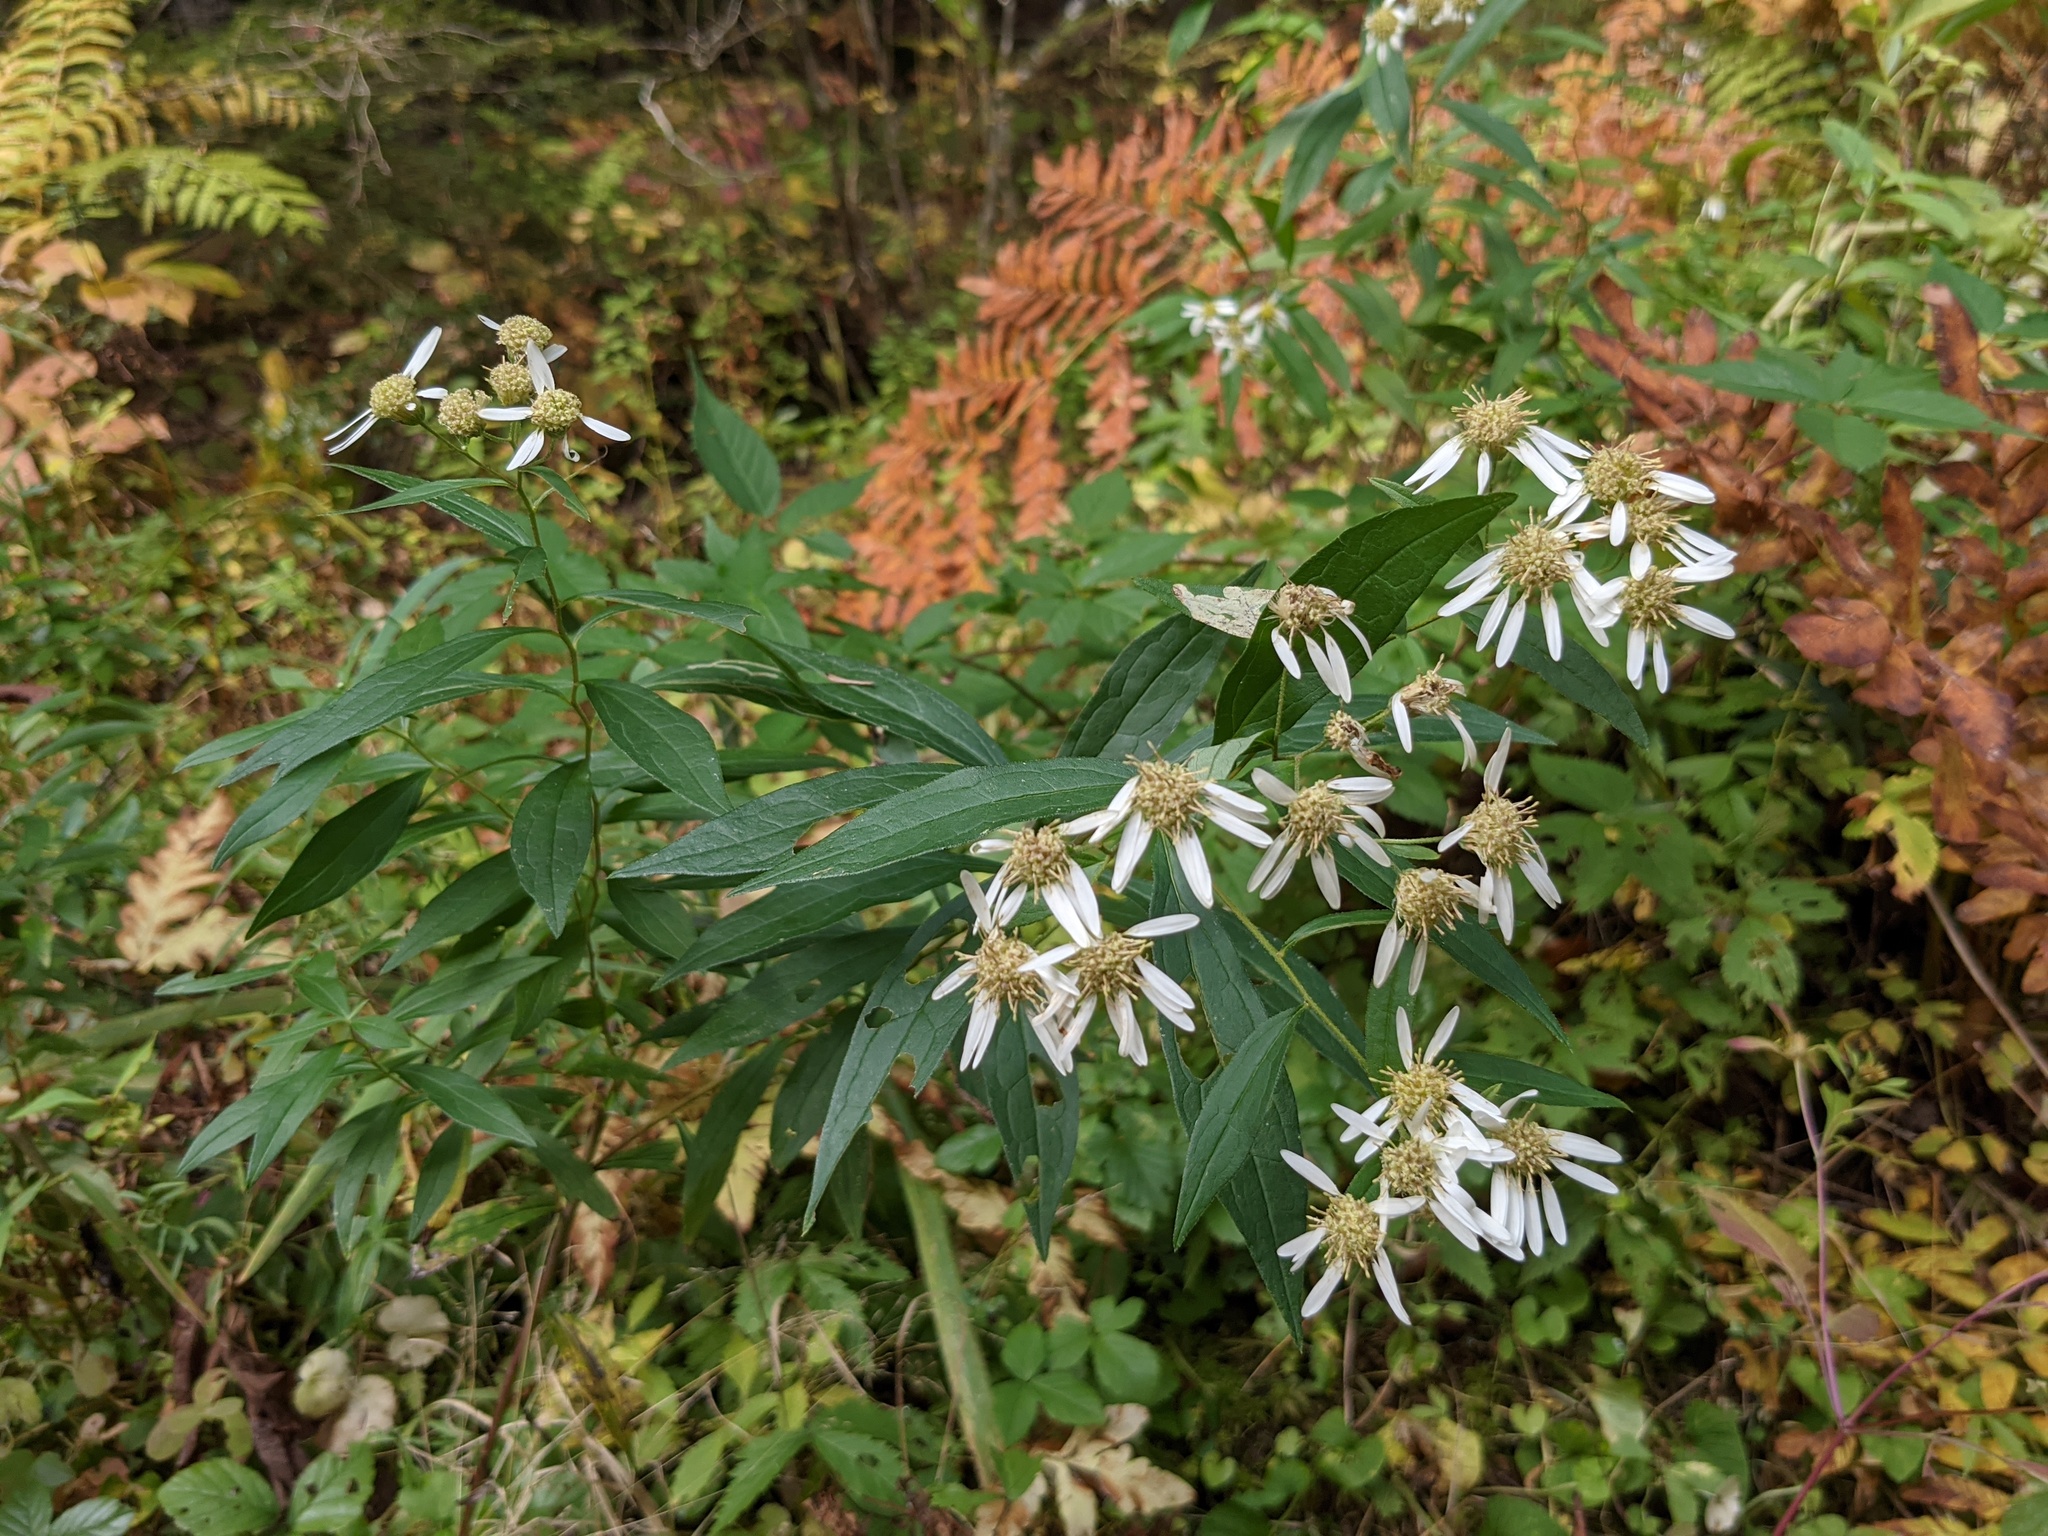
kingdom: Plantae
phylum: Tracheophyta
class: Magnoliopsida
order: Asterales
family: Asteraceae
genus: Doellingeria
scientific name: Doellingeria umbellata
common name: Flat-top white aster
